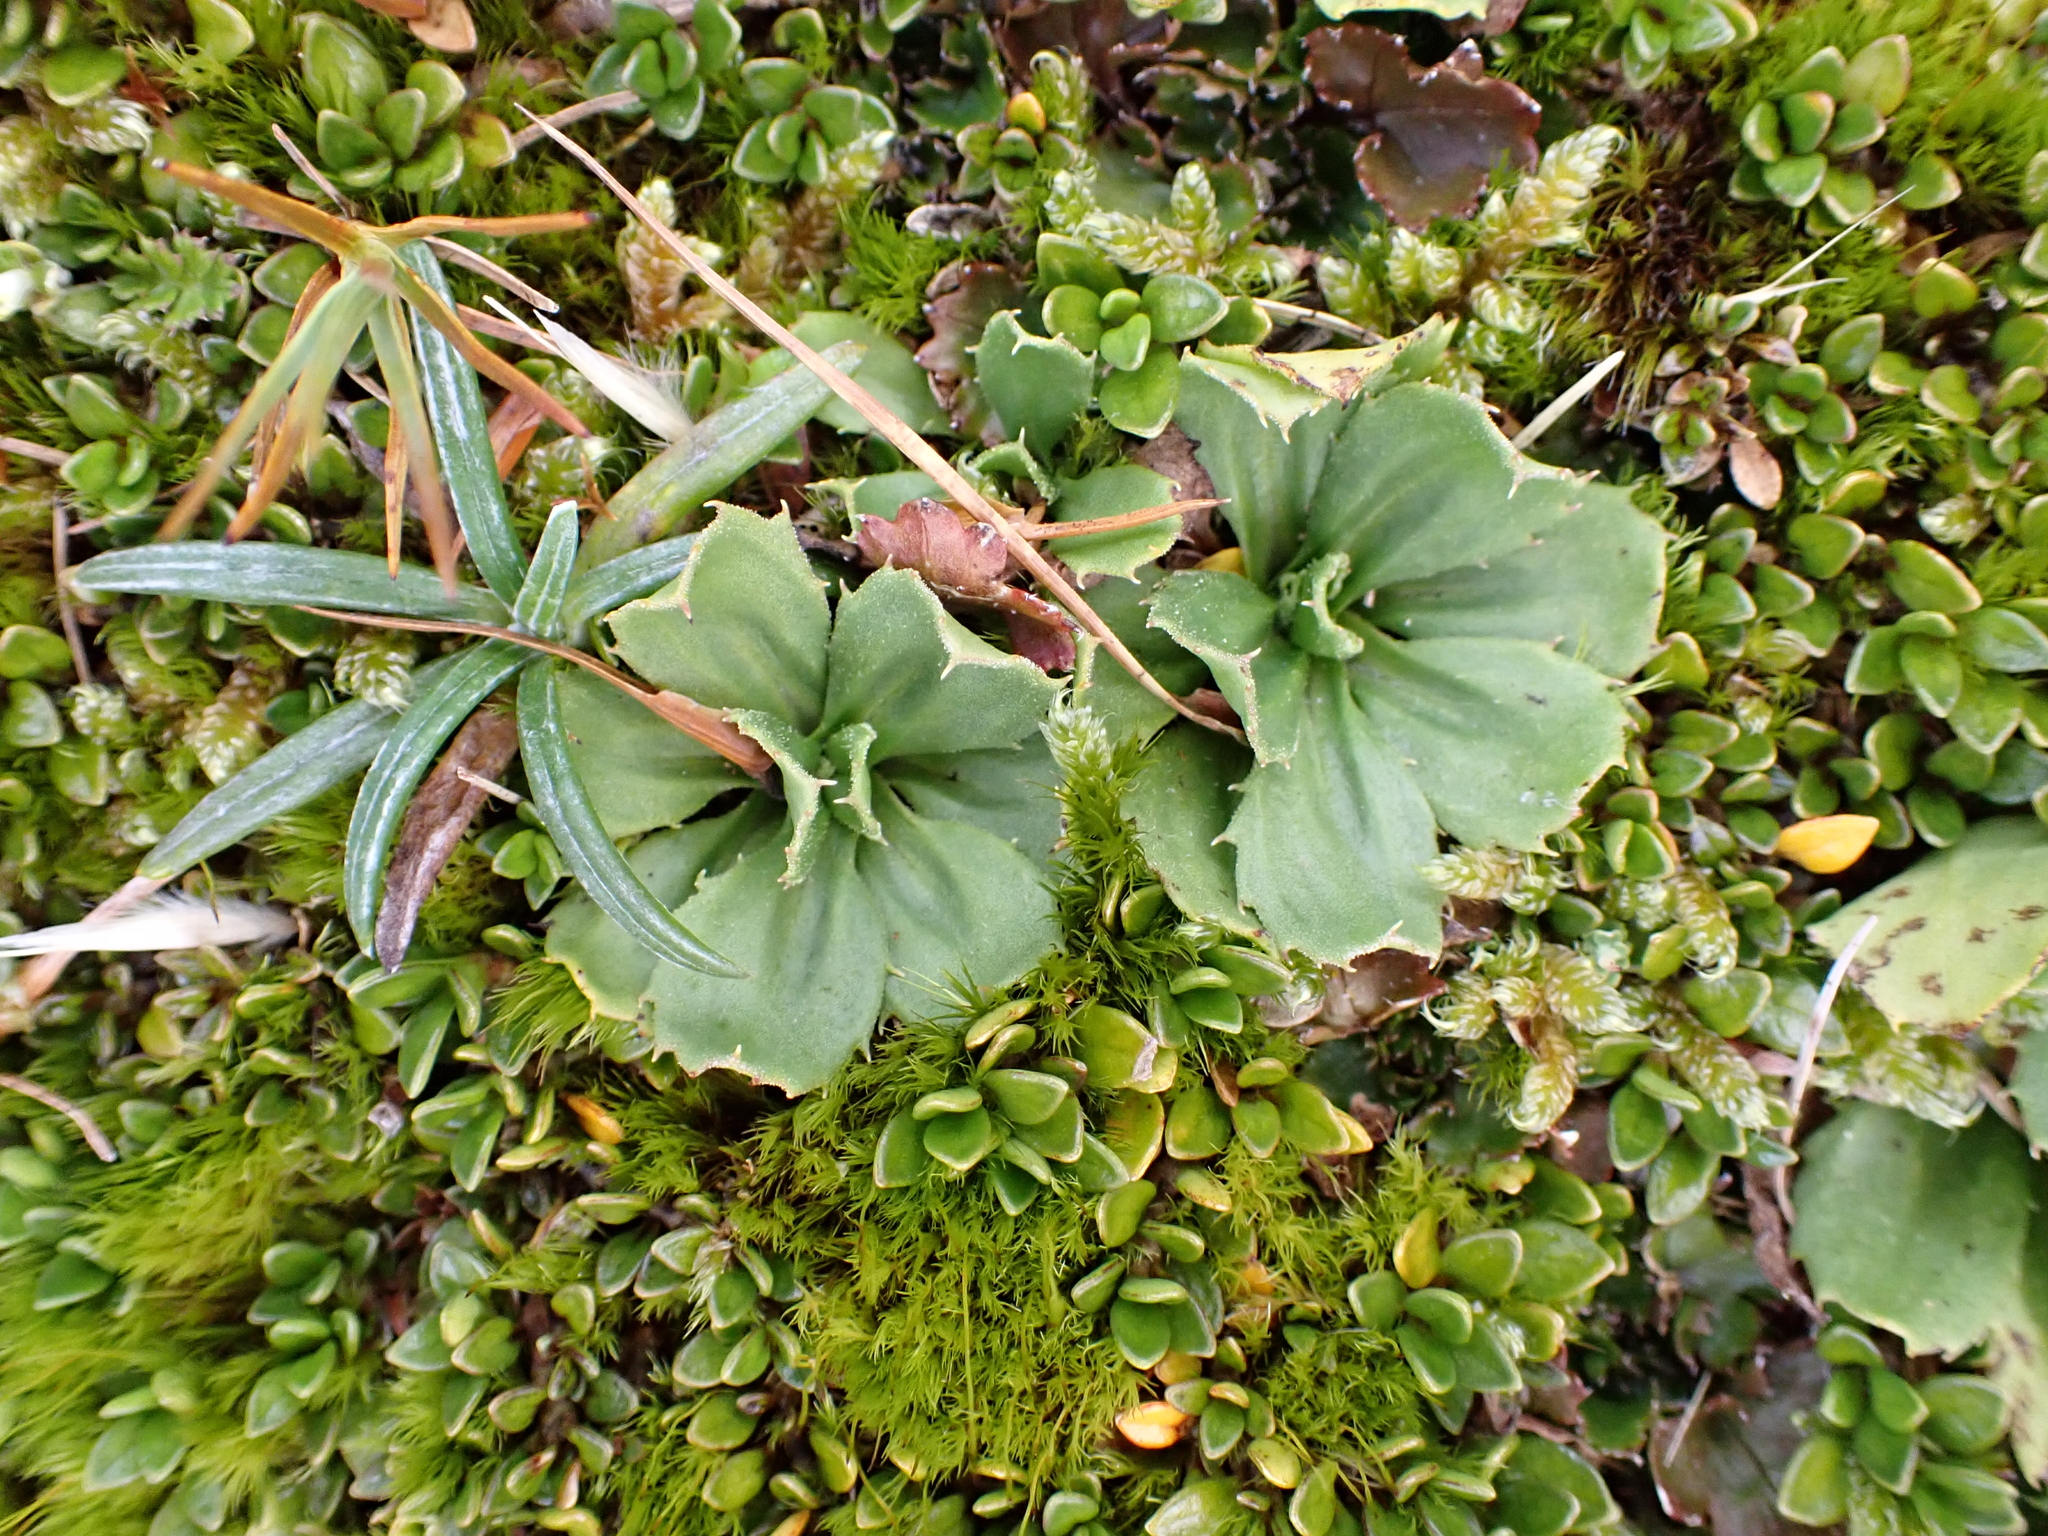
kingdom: Plantae
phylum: Tracheophyta
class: Magnoliopsida
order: Asterales
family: Asteraceae
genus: Celmisia
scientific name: Celmisia glandulosa
